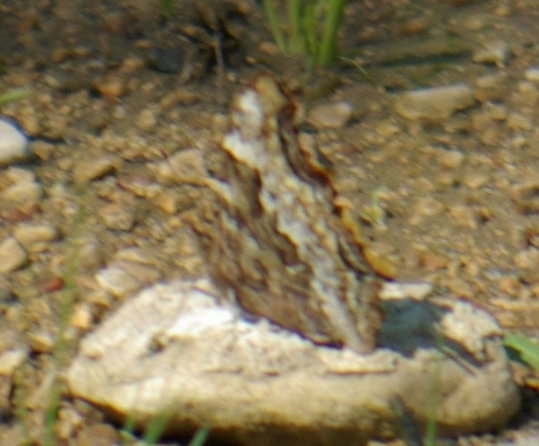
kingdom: Animalia
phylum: Arthropoda
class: Insecta
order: Lepidoptera
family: Nymphalidae
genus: Polygonia
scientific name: Polygonia vaualbum
